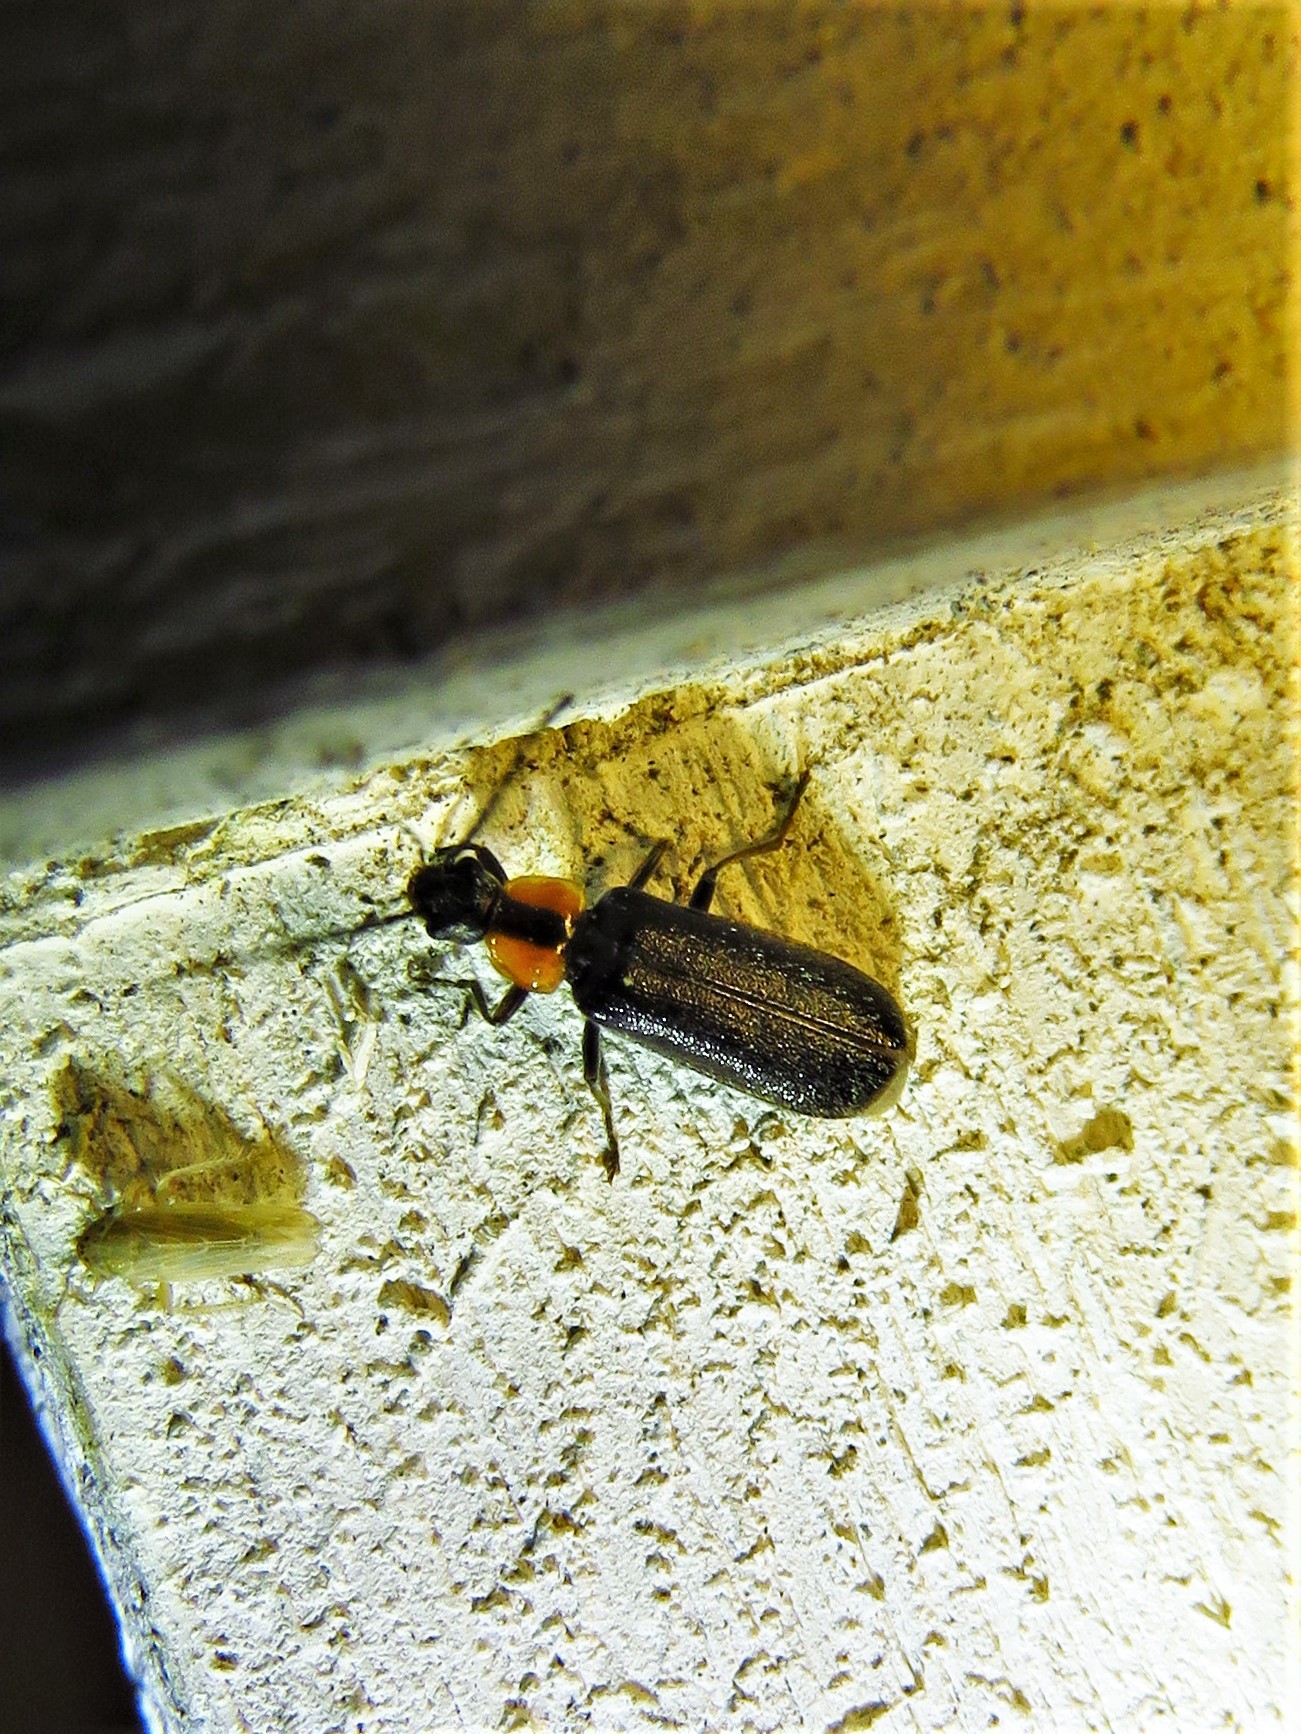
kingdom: Animalia
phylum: Arthropoda
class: Insecta
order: Coleoptera
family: Cantharidae
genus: Rhagonycha
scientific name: Rhagonycha lineola
